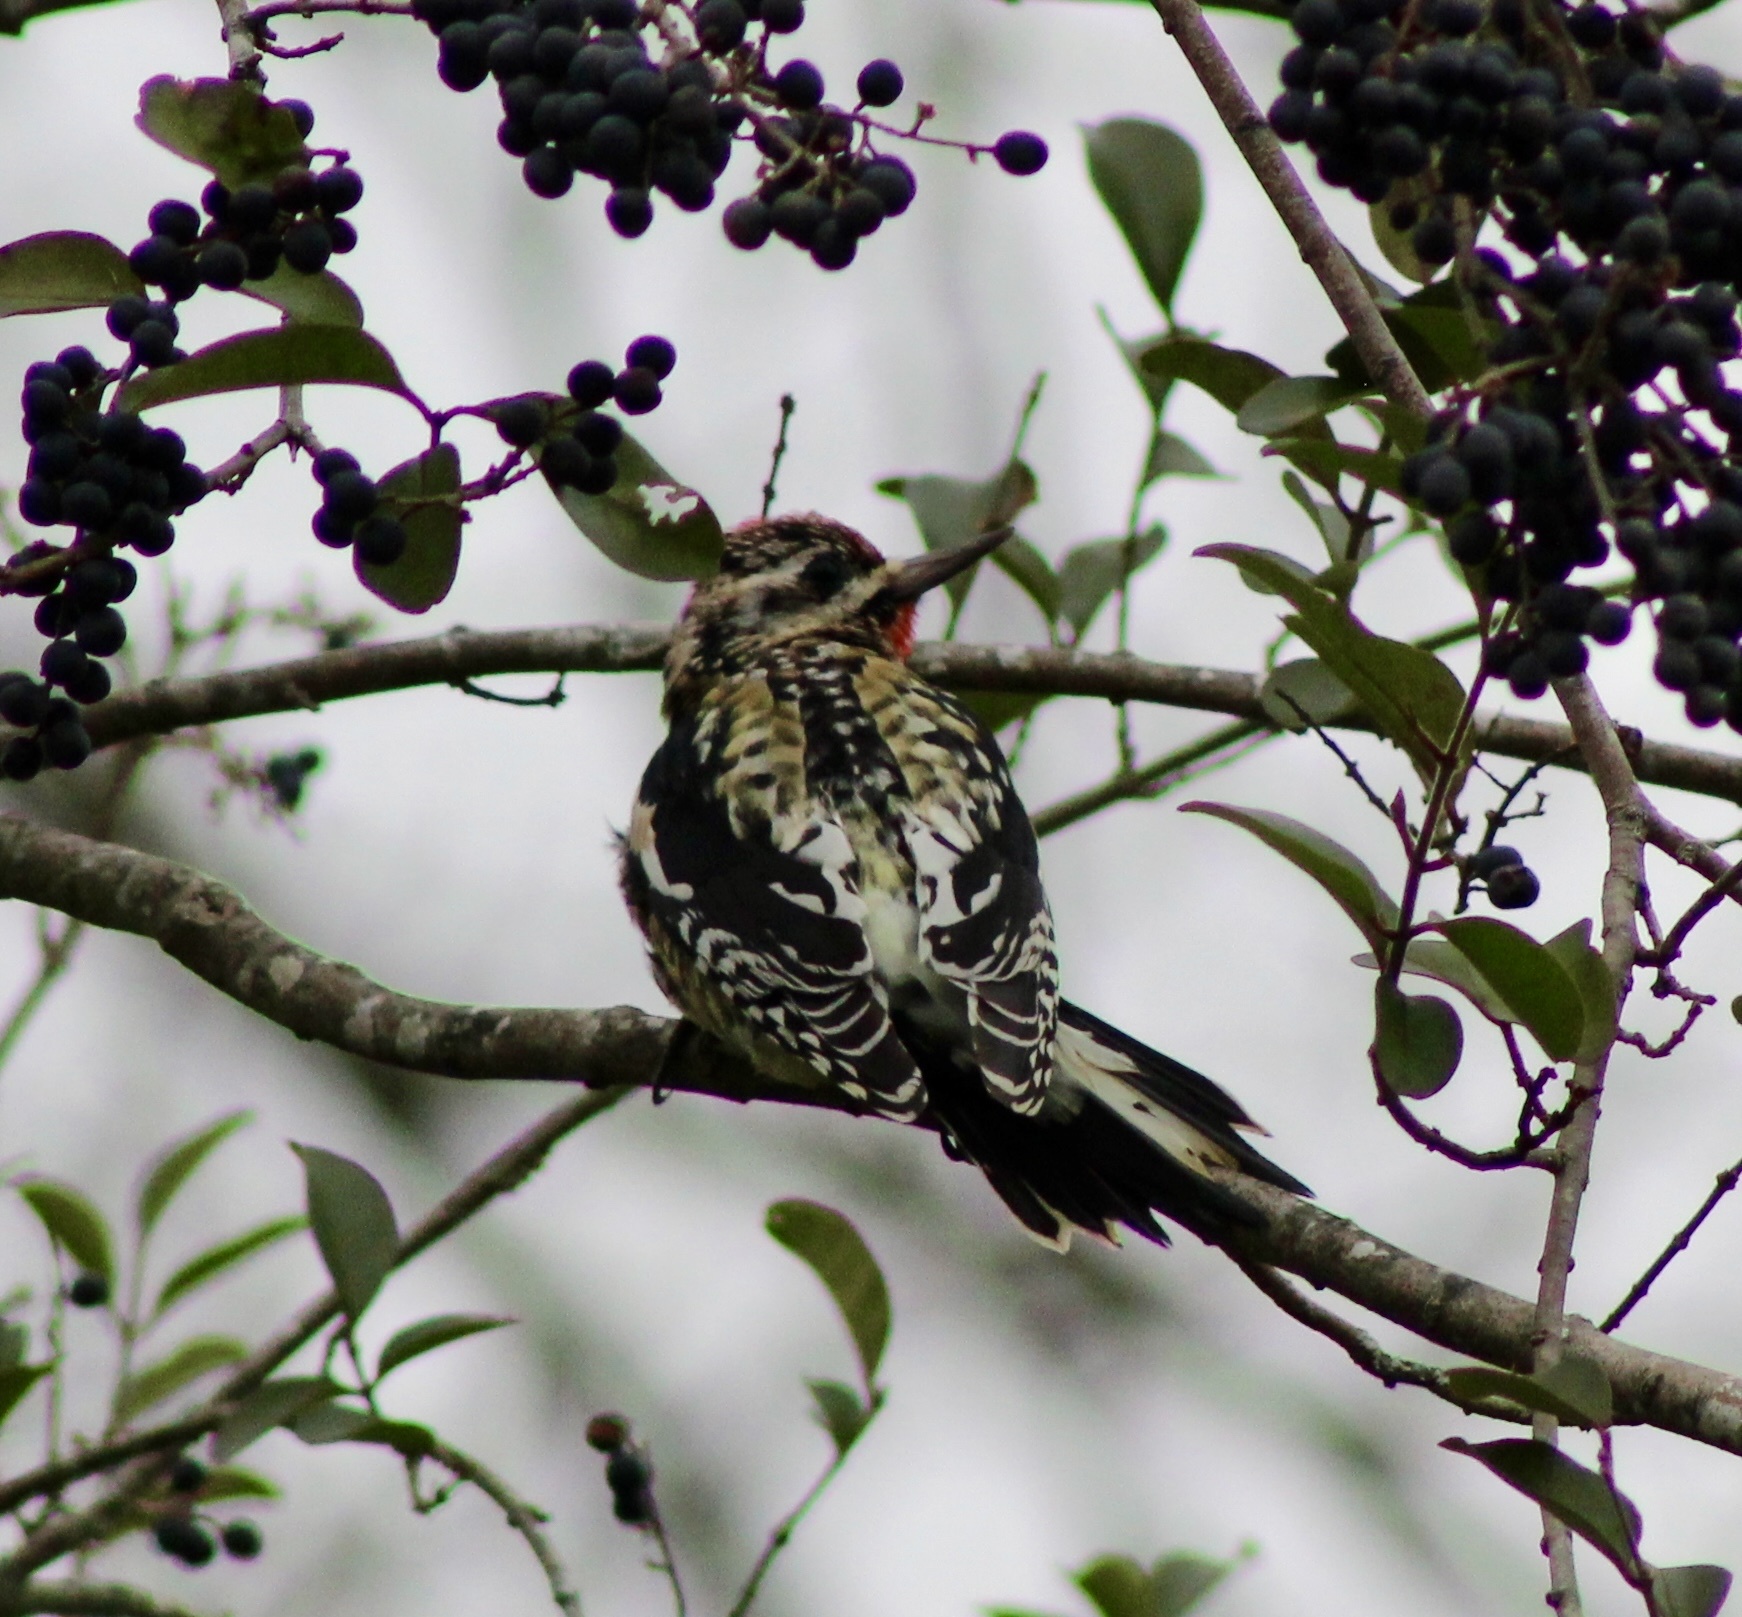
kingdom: Animalia
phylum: Chordata
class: Aves
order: Piciformes
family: Picidae
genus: Sphyrapicus
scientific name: Sphyrapicus varius
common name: Yellow-bellied sapsucker
